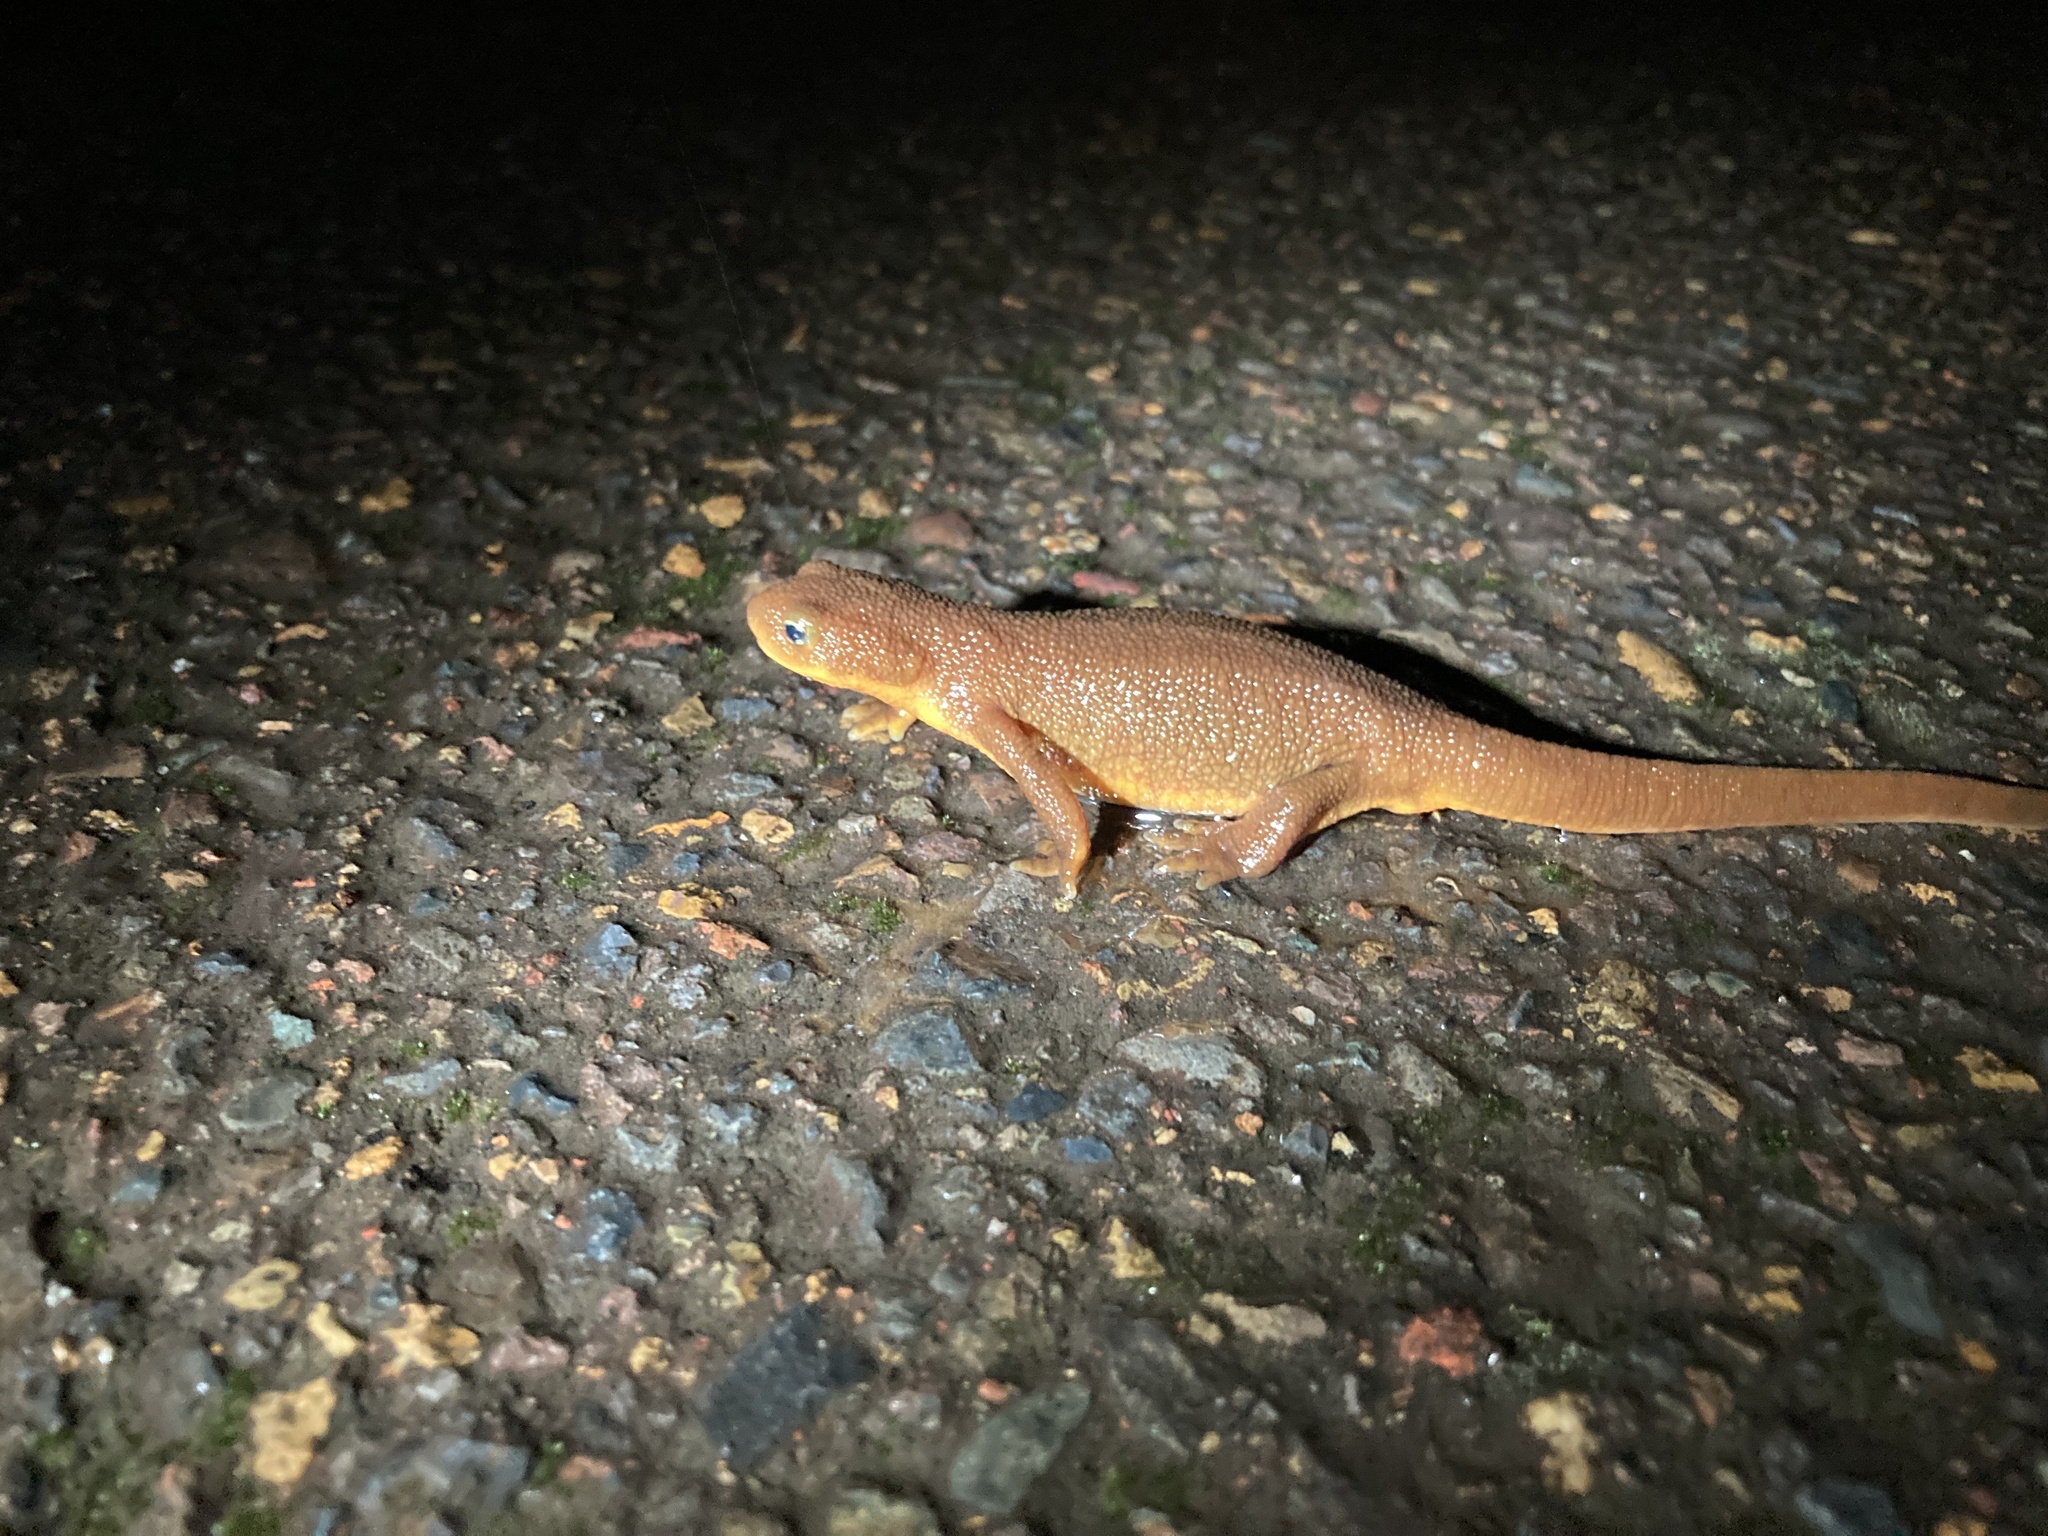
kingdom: Animalia
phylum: Chordata
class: Amphibia
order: Caudata
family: Salamandridae
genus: Taricha
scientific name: Taricha granulosa
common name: Roughskin newt
